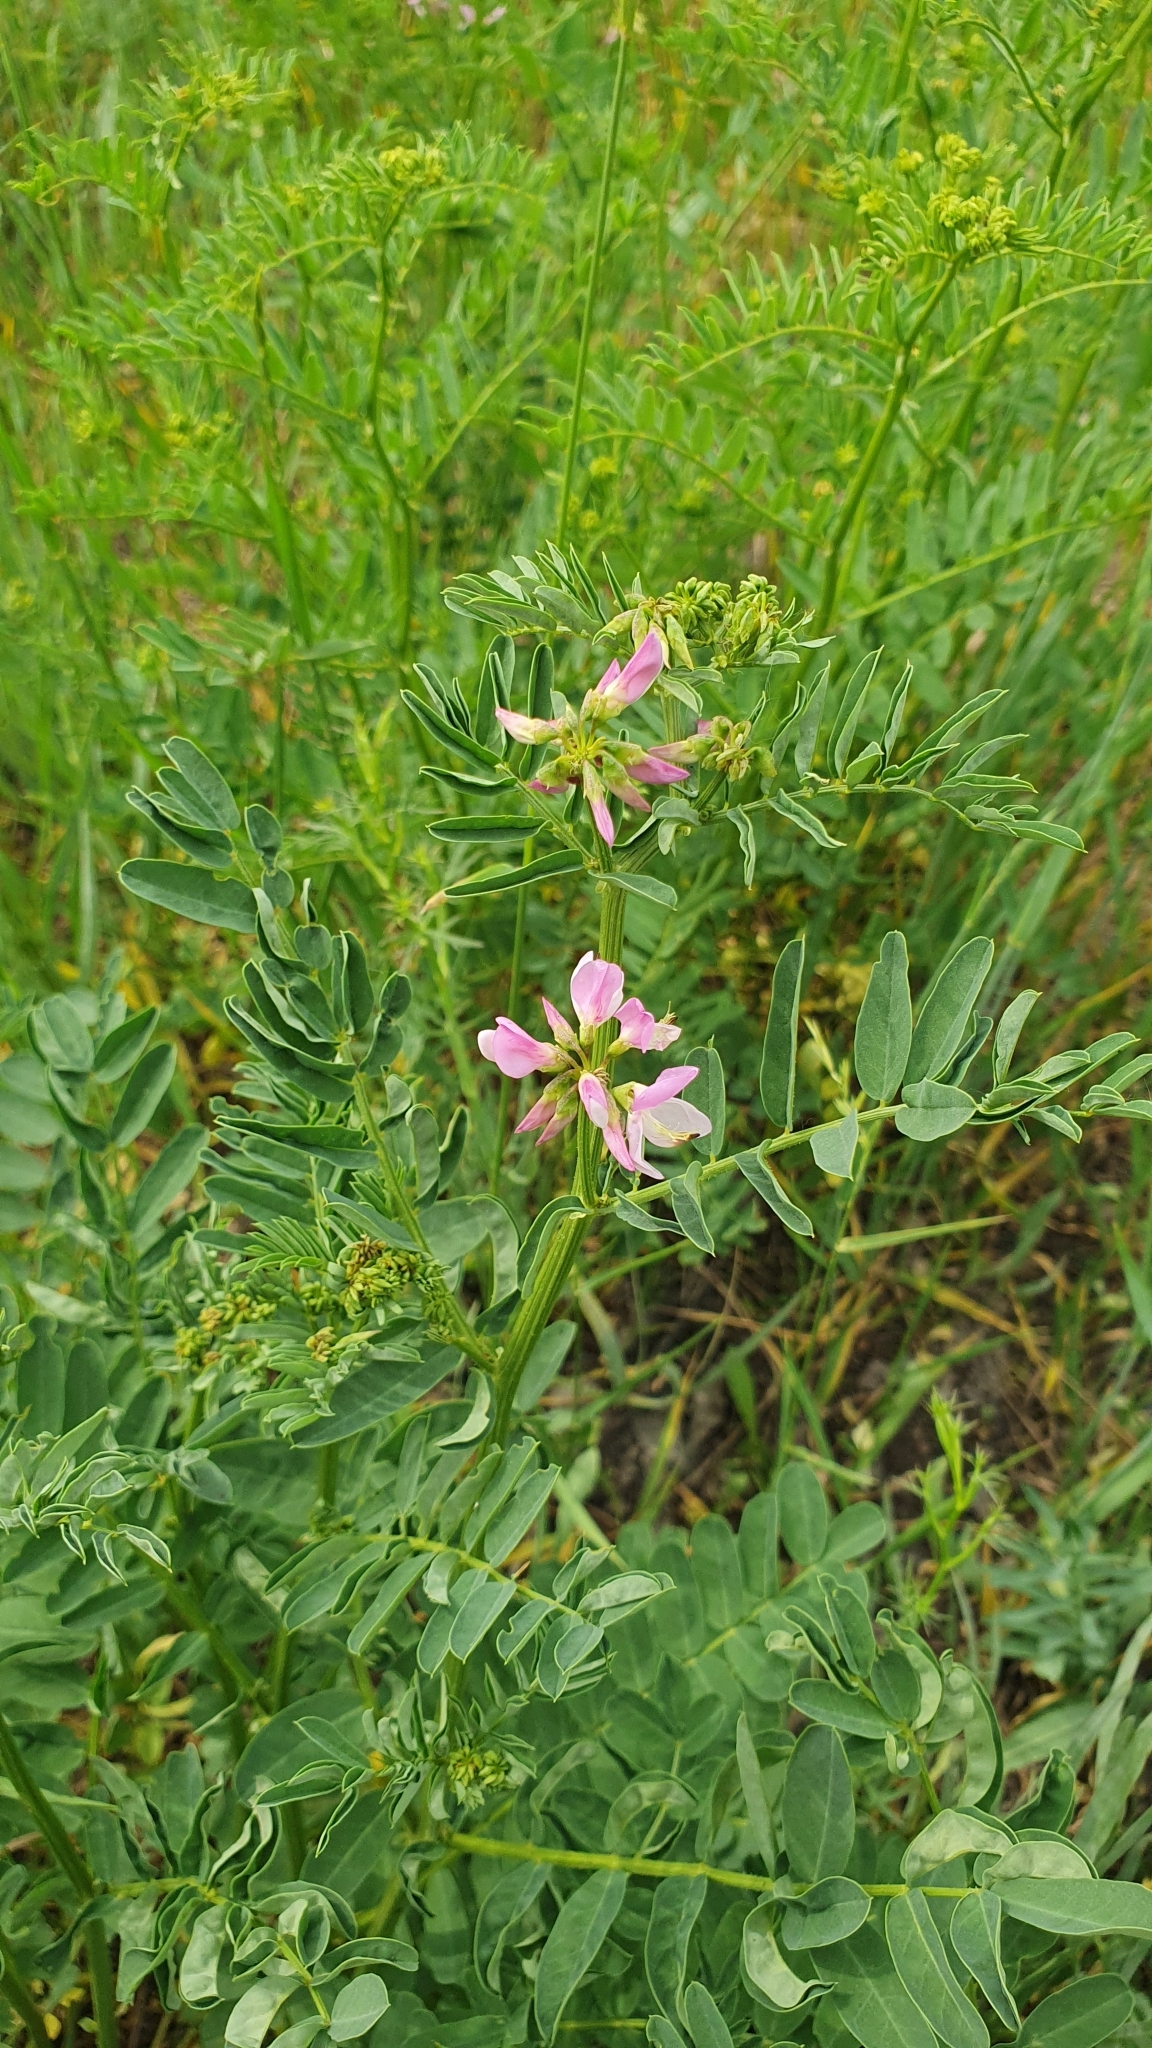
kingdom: Plantae
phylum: Tracheophyta
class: Magnoliopsida
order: Fabales
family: Fabaceae
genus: Coronilla
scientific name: Coronilla varia
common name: Crownvetch
